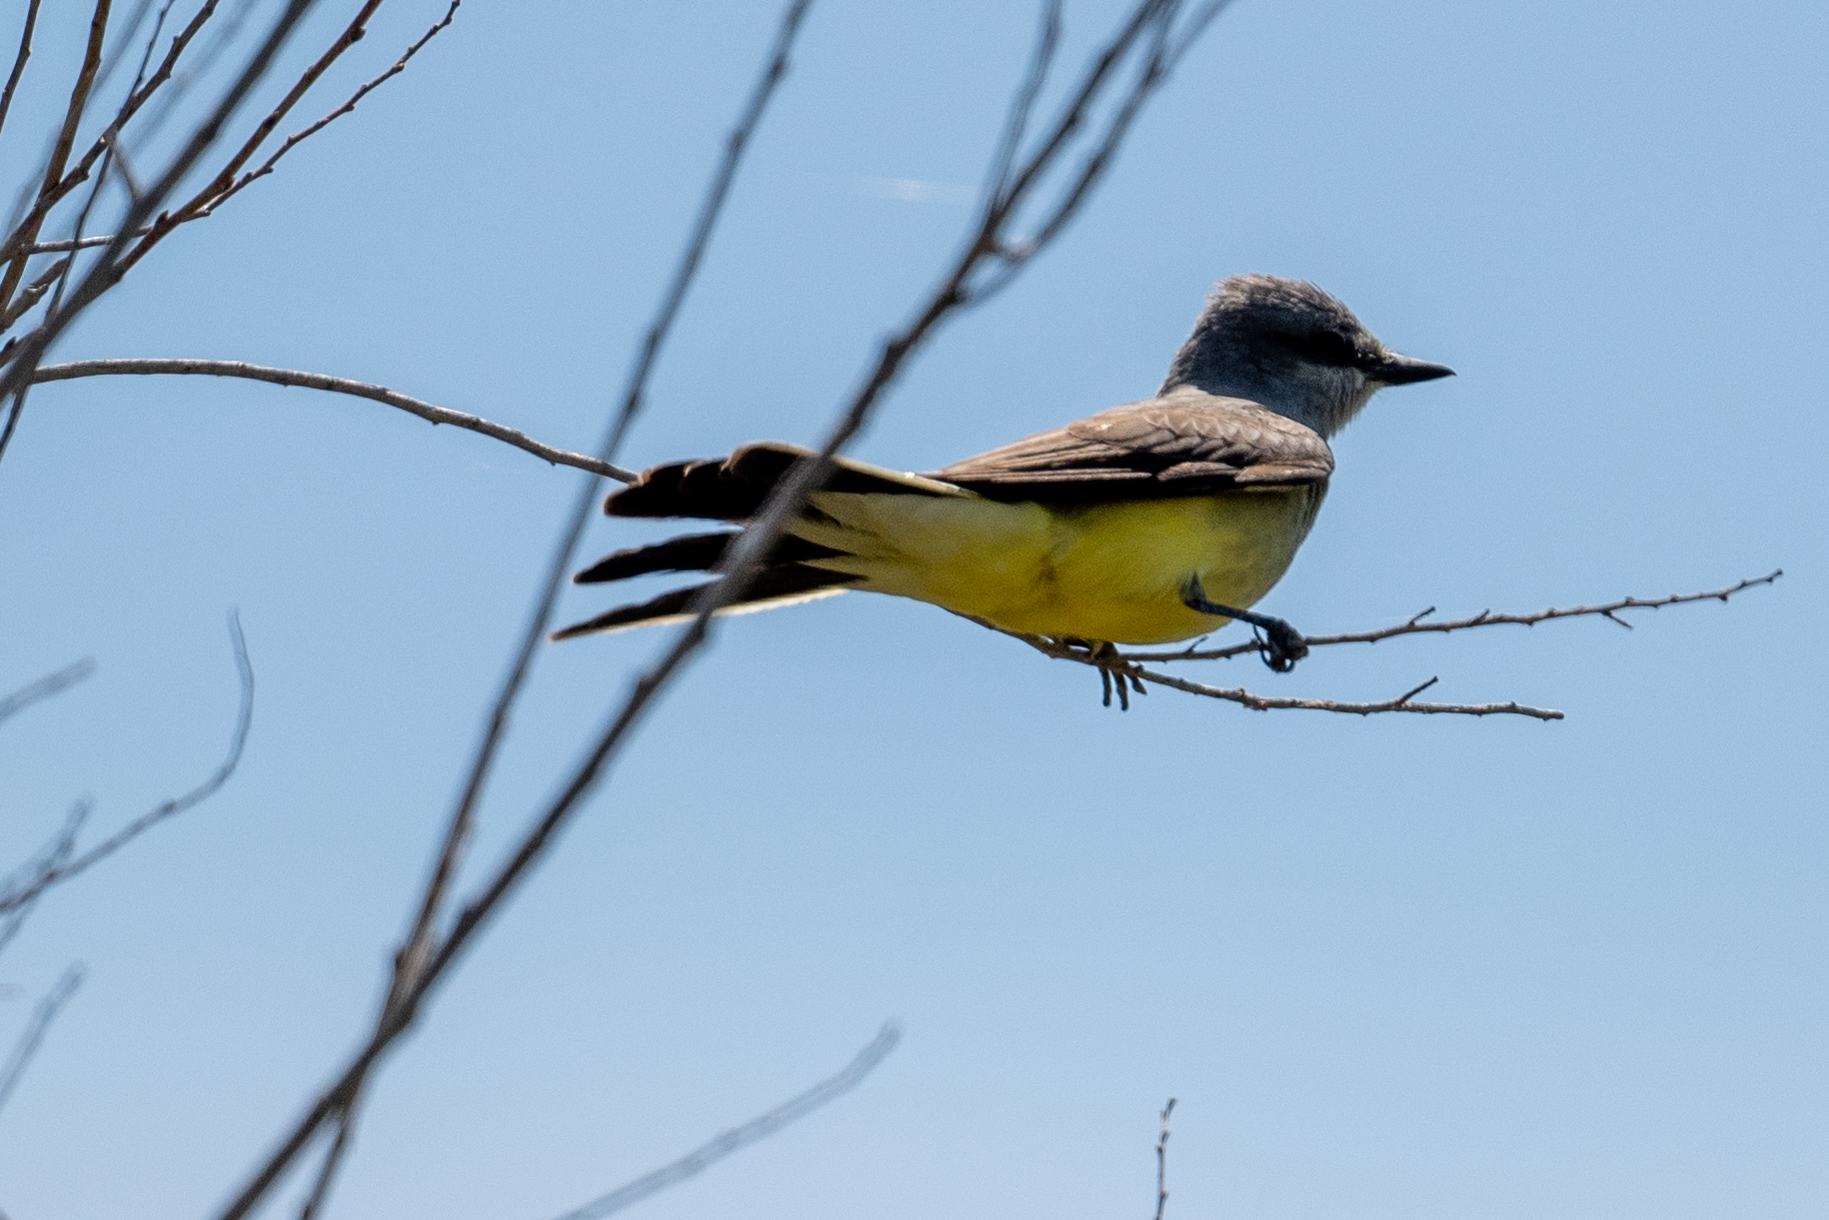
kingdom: Animalia
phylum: Chordata
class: Aves
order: Passeriformes
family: Tyrannidae
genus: Tyrannus
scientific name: Tyrannus verticalis
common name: Western kingbird
